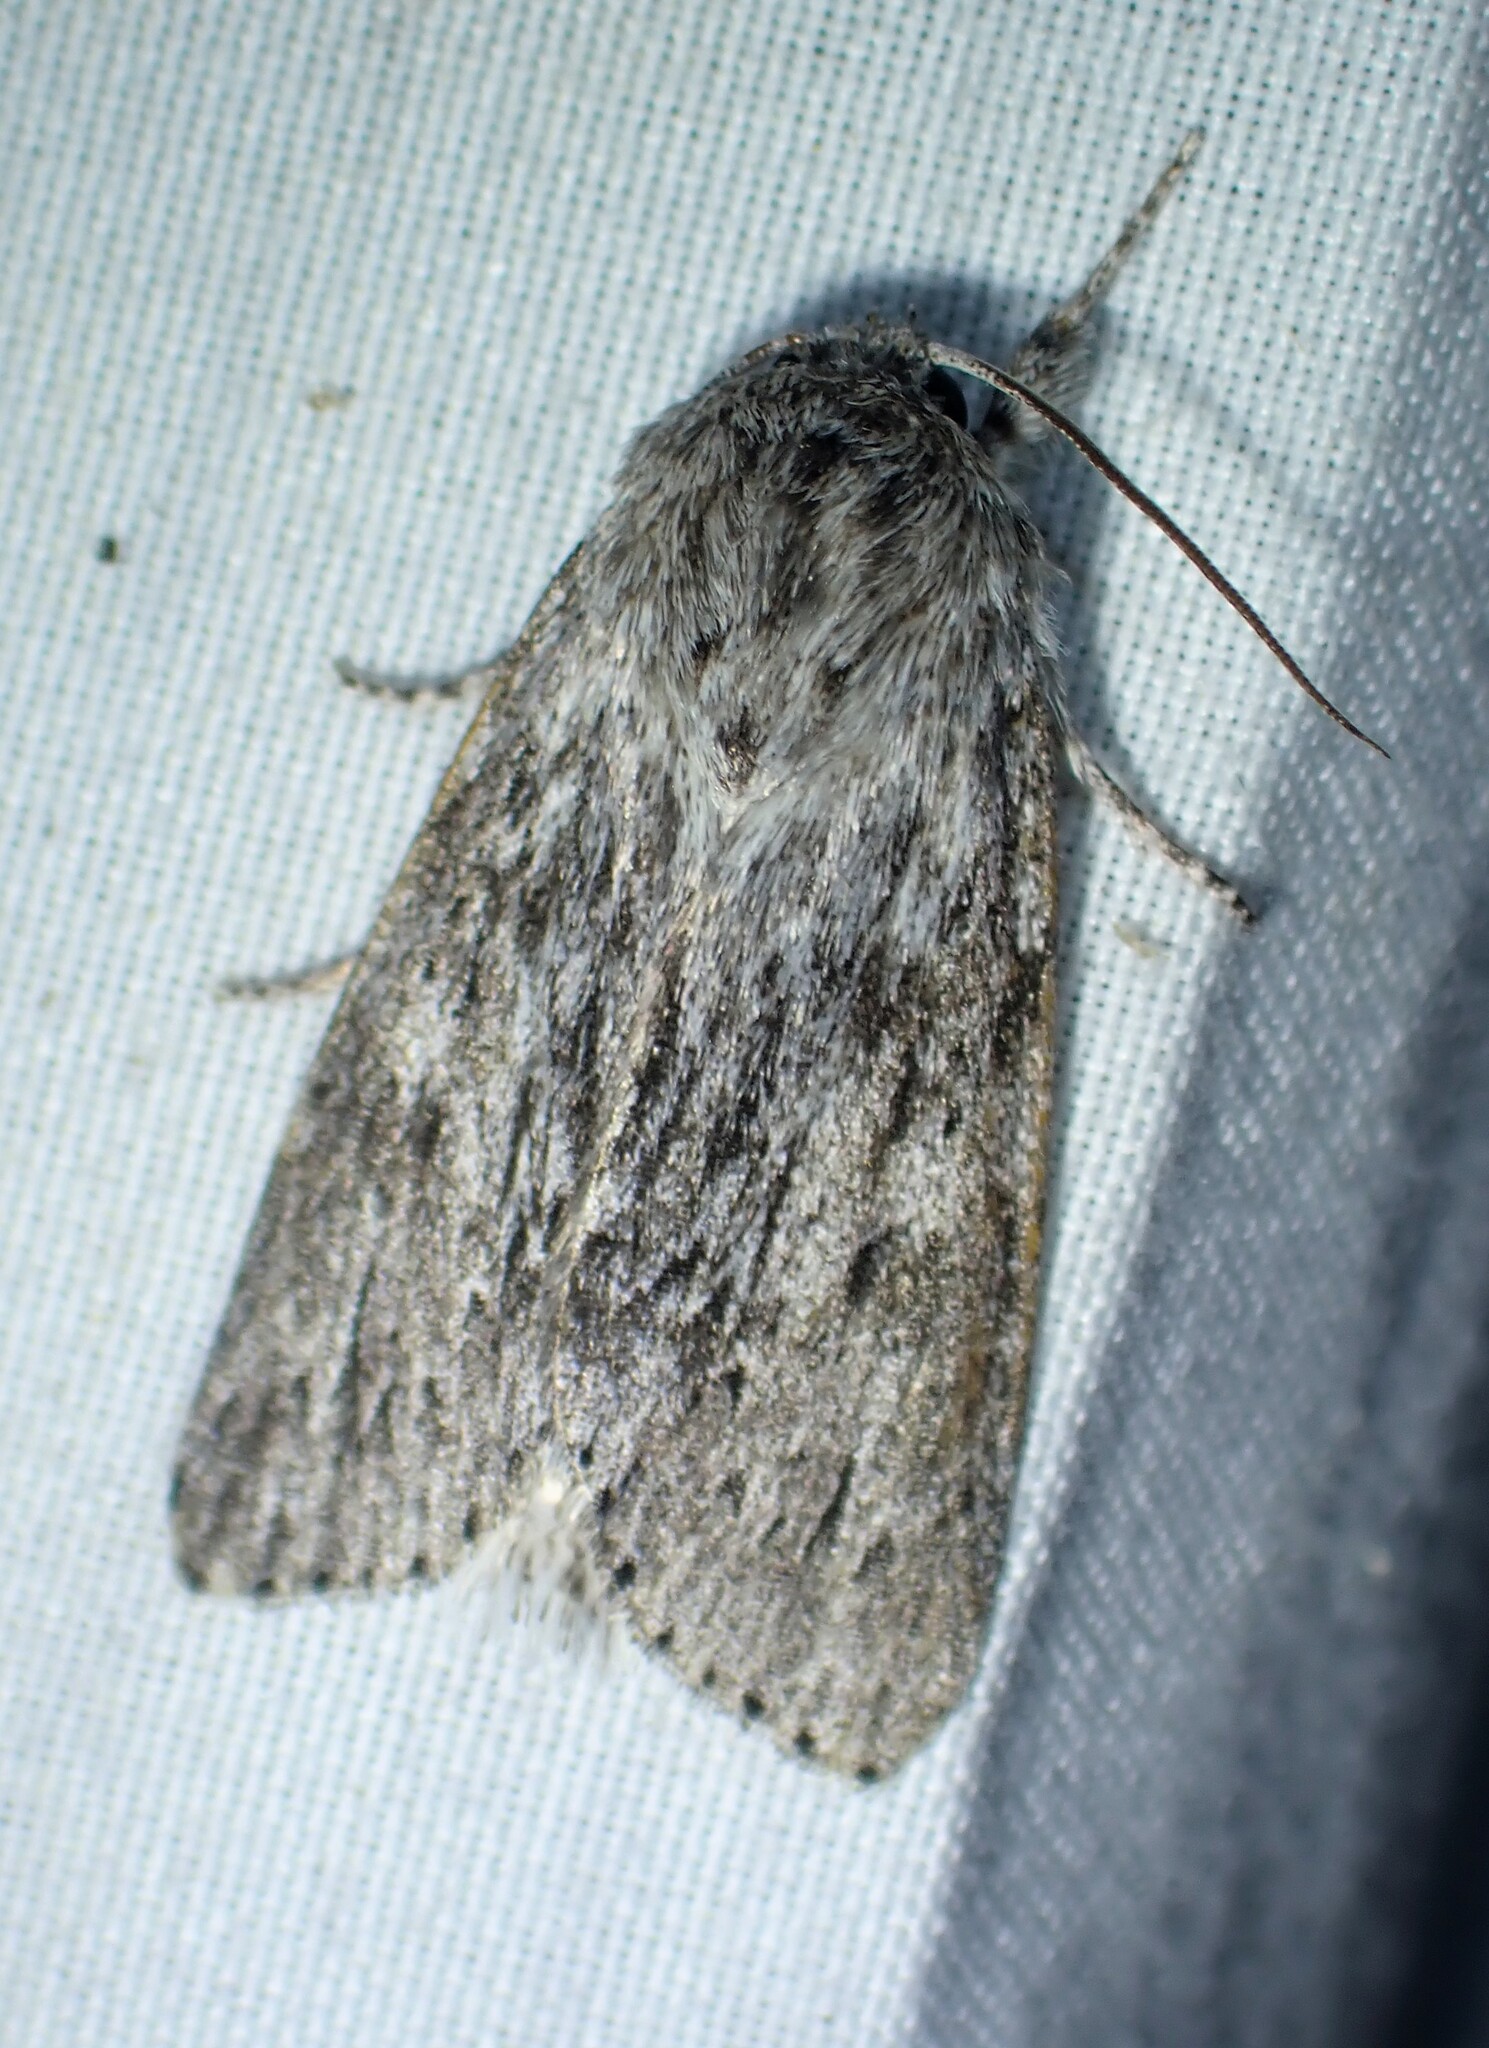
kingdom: Animalia
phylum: Arthropoda
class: Insecta
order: Lepidoptera
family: Noctuidae
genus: Acronicta
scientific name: Acronicta oblinita
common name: Smeared dagger
